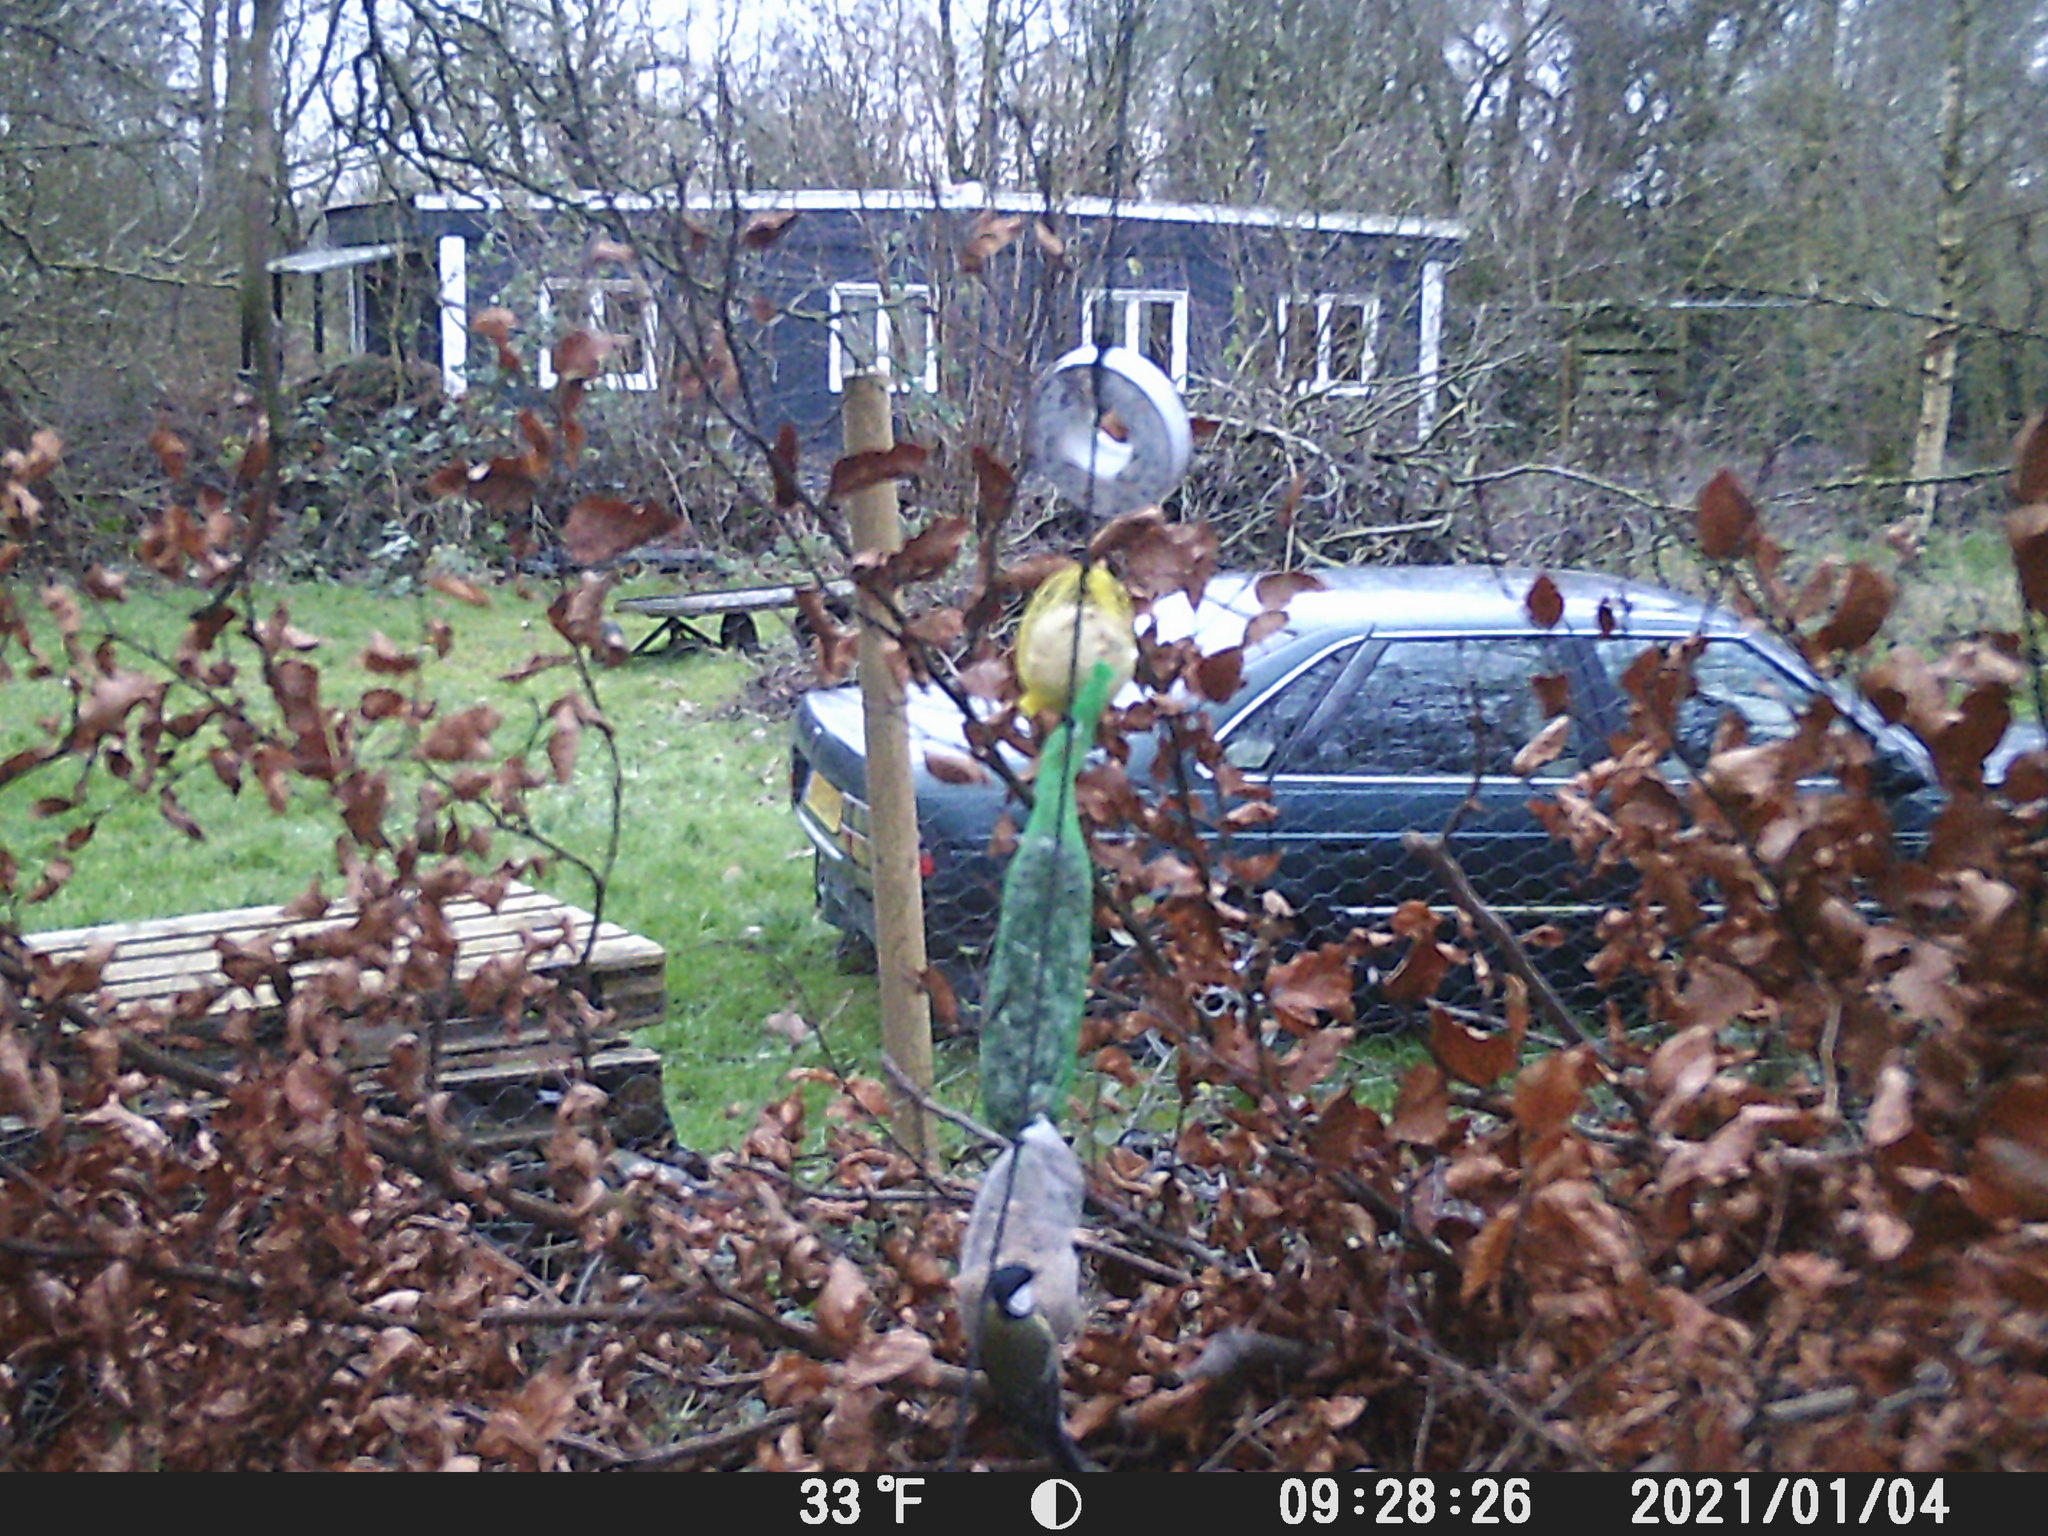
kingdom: Animalia
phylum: Chordata
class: Aves
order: Passeriformes
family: Paridae
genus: Parus
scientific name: Parus major
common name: Great tit
